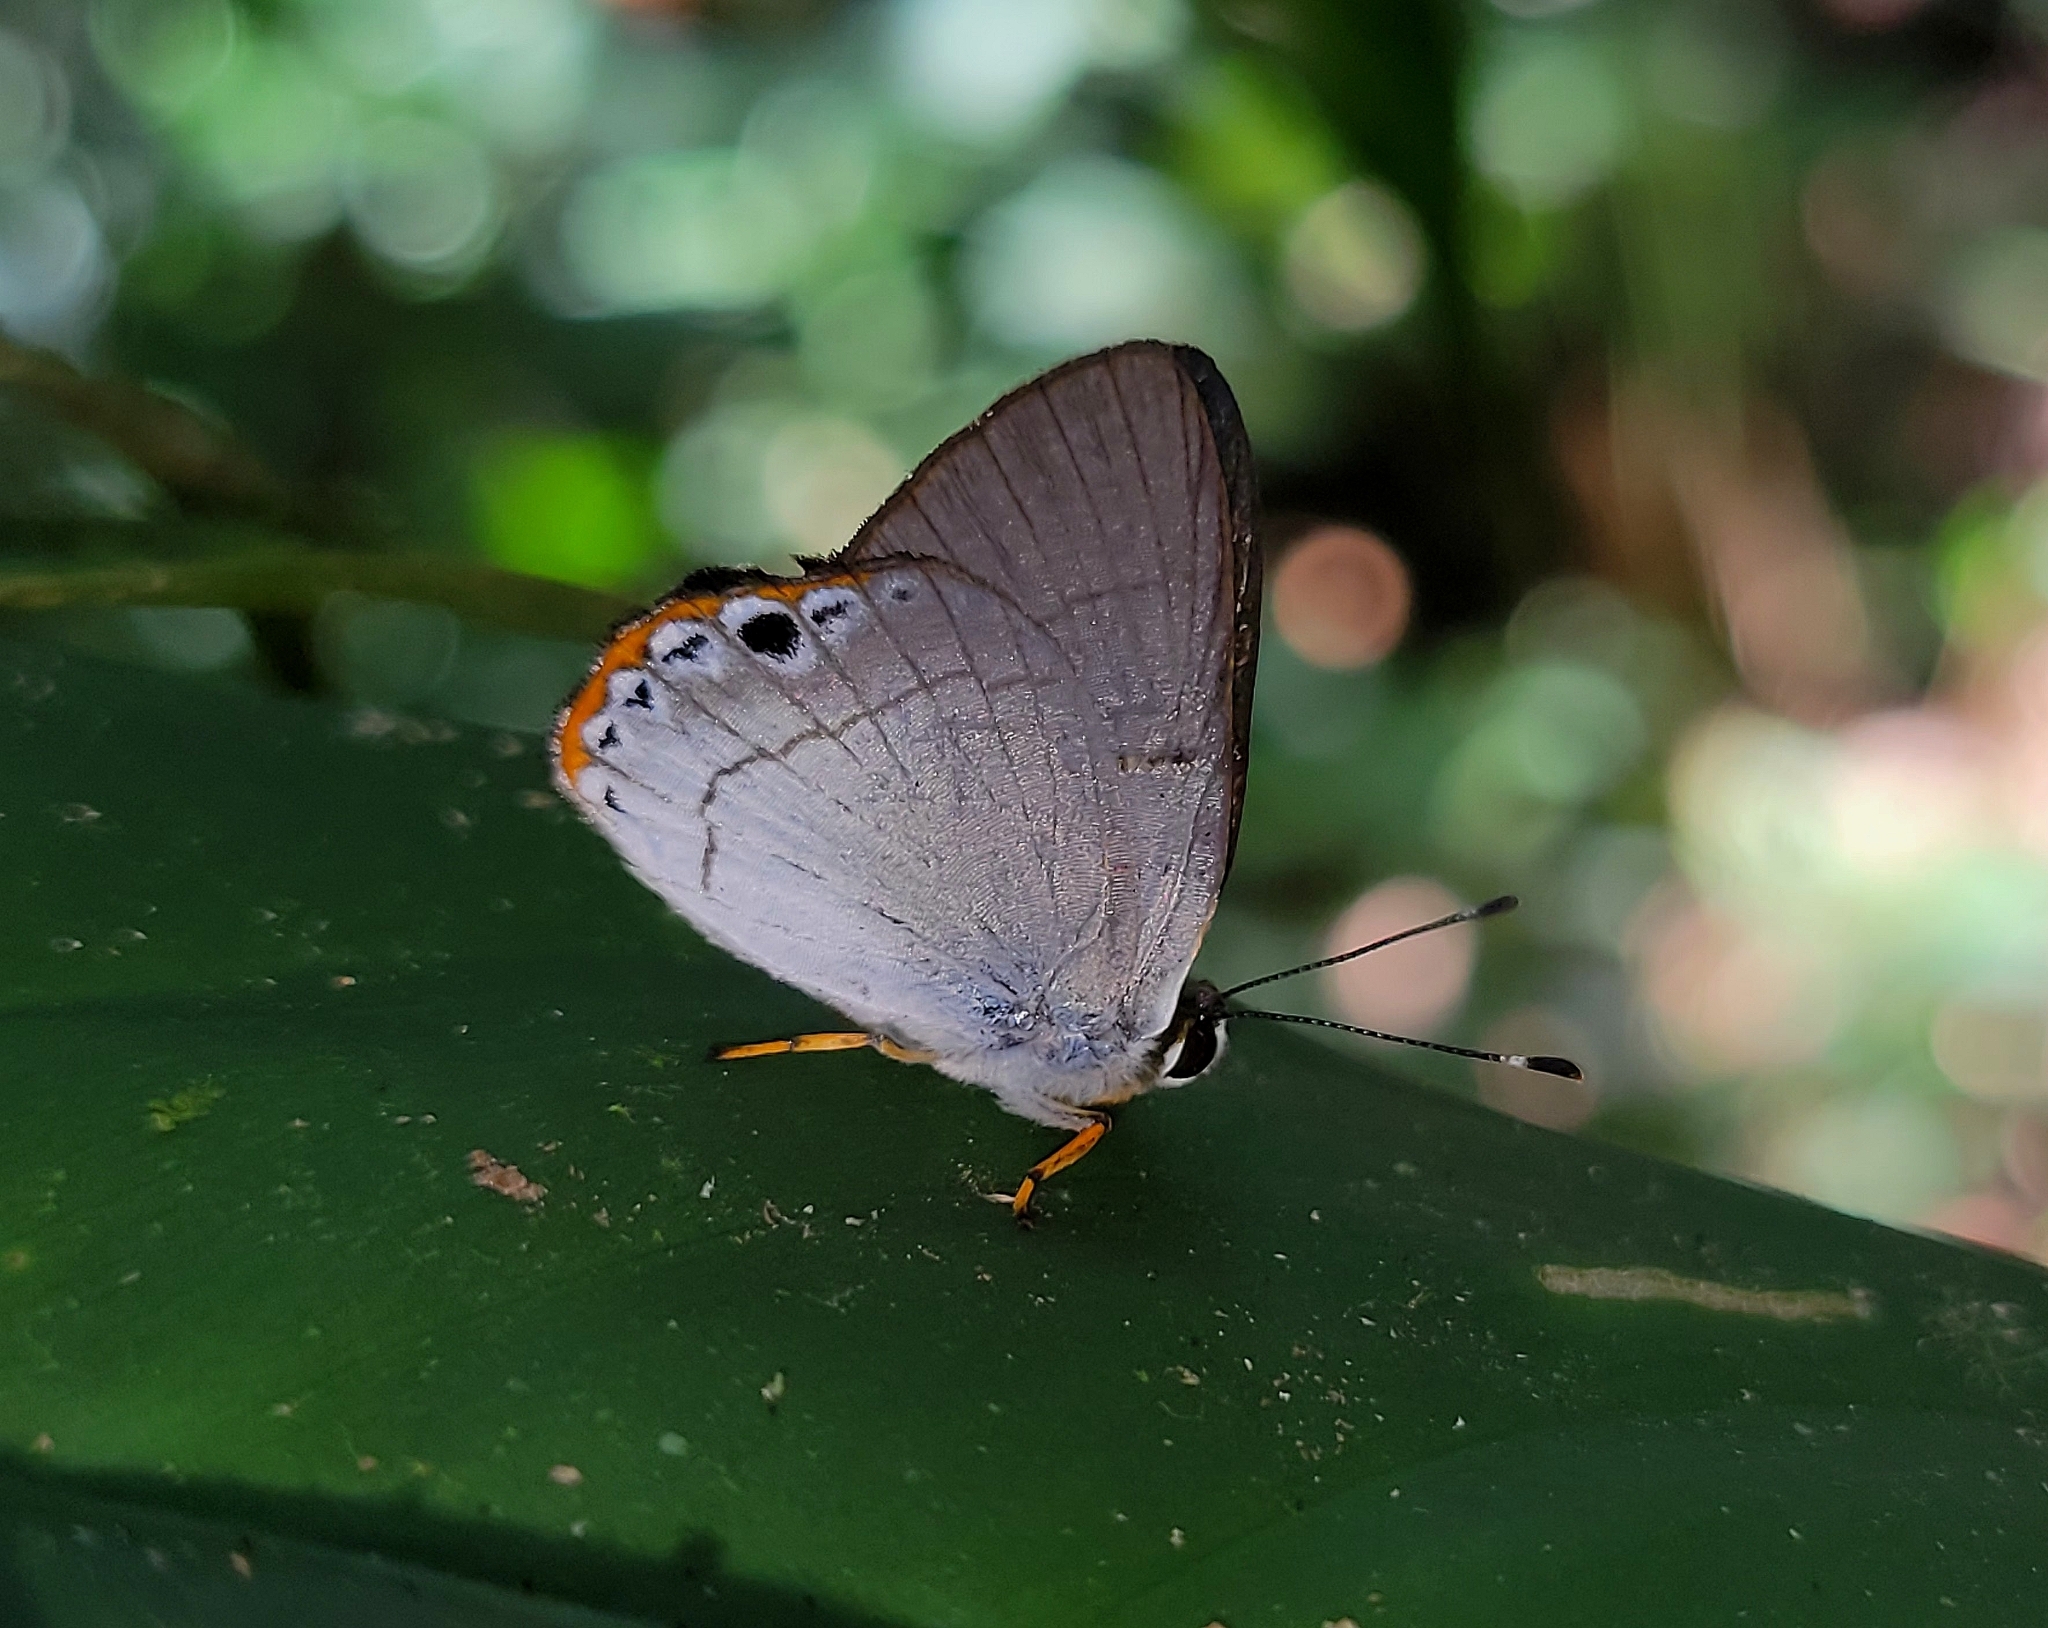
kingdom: Animalia
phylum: Arthropoda
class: Insecta
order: Lepidoptera
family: Lycaenidae
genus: Euselasia
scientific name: Euselasia baucis
